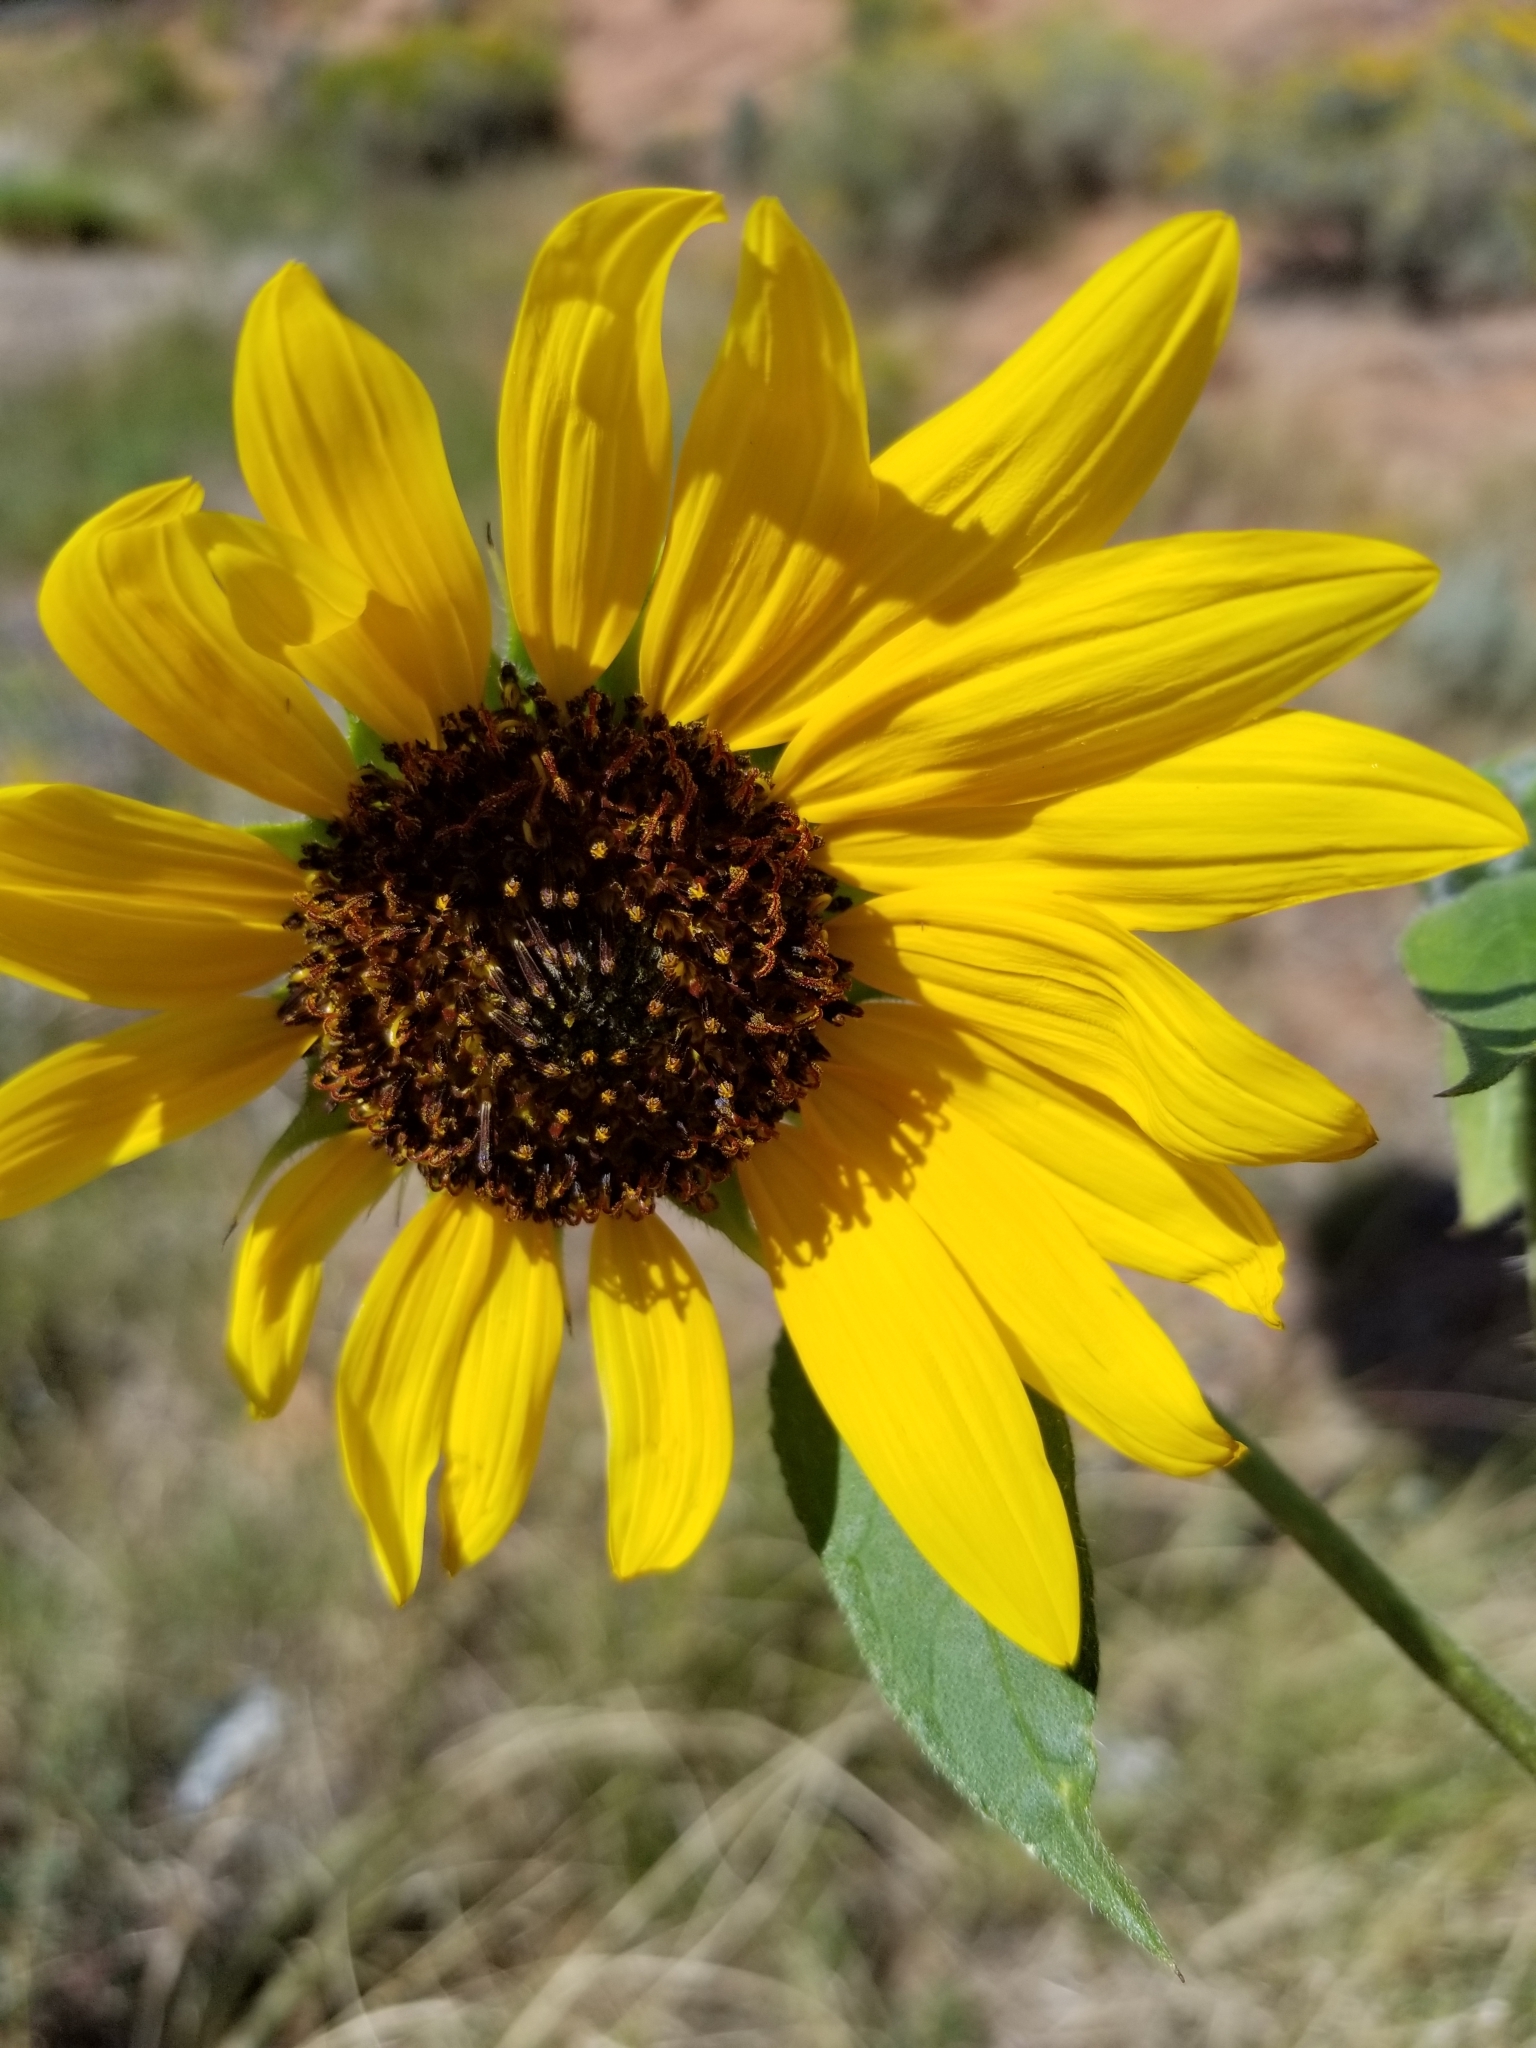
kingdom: Plantae
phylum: Tracheophyta
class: Magnoliopsida
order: Asterales
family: Asteraceae
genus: Helianthus
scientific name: Helianthus annuus
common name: Sunflower
